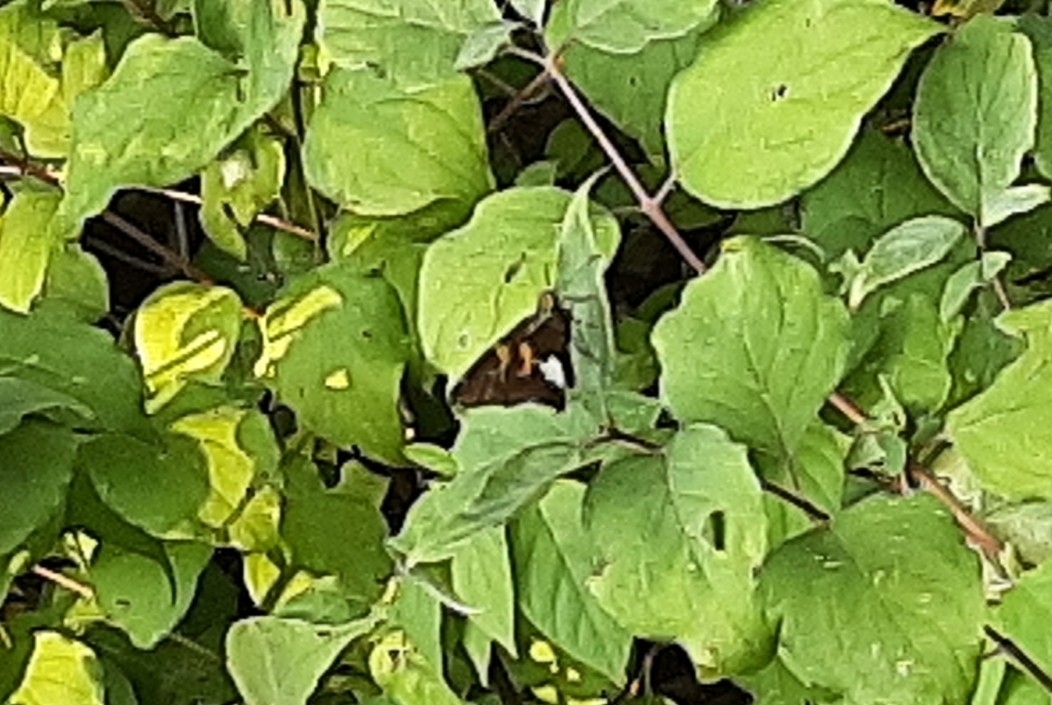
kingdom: Animalia
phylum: Arthropoda
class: Insecta
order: Lepidoptera
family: Hesperiidae
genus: Epargyreus
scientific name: Epargyreus clarus
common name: Silver-spotted skipper
